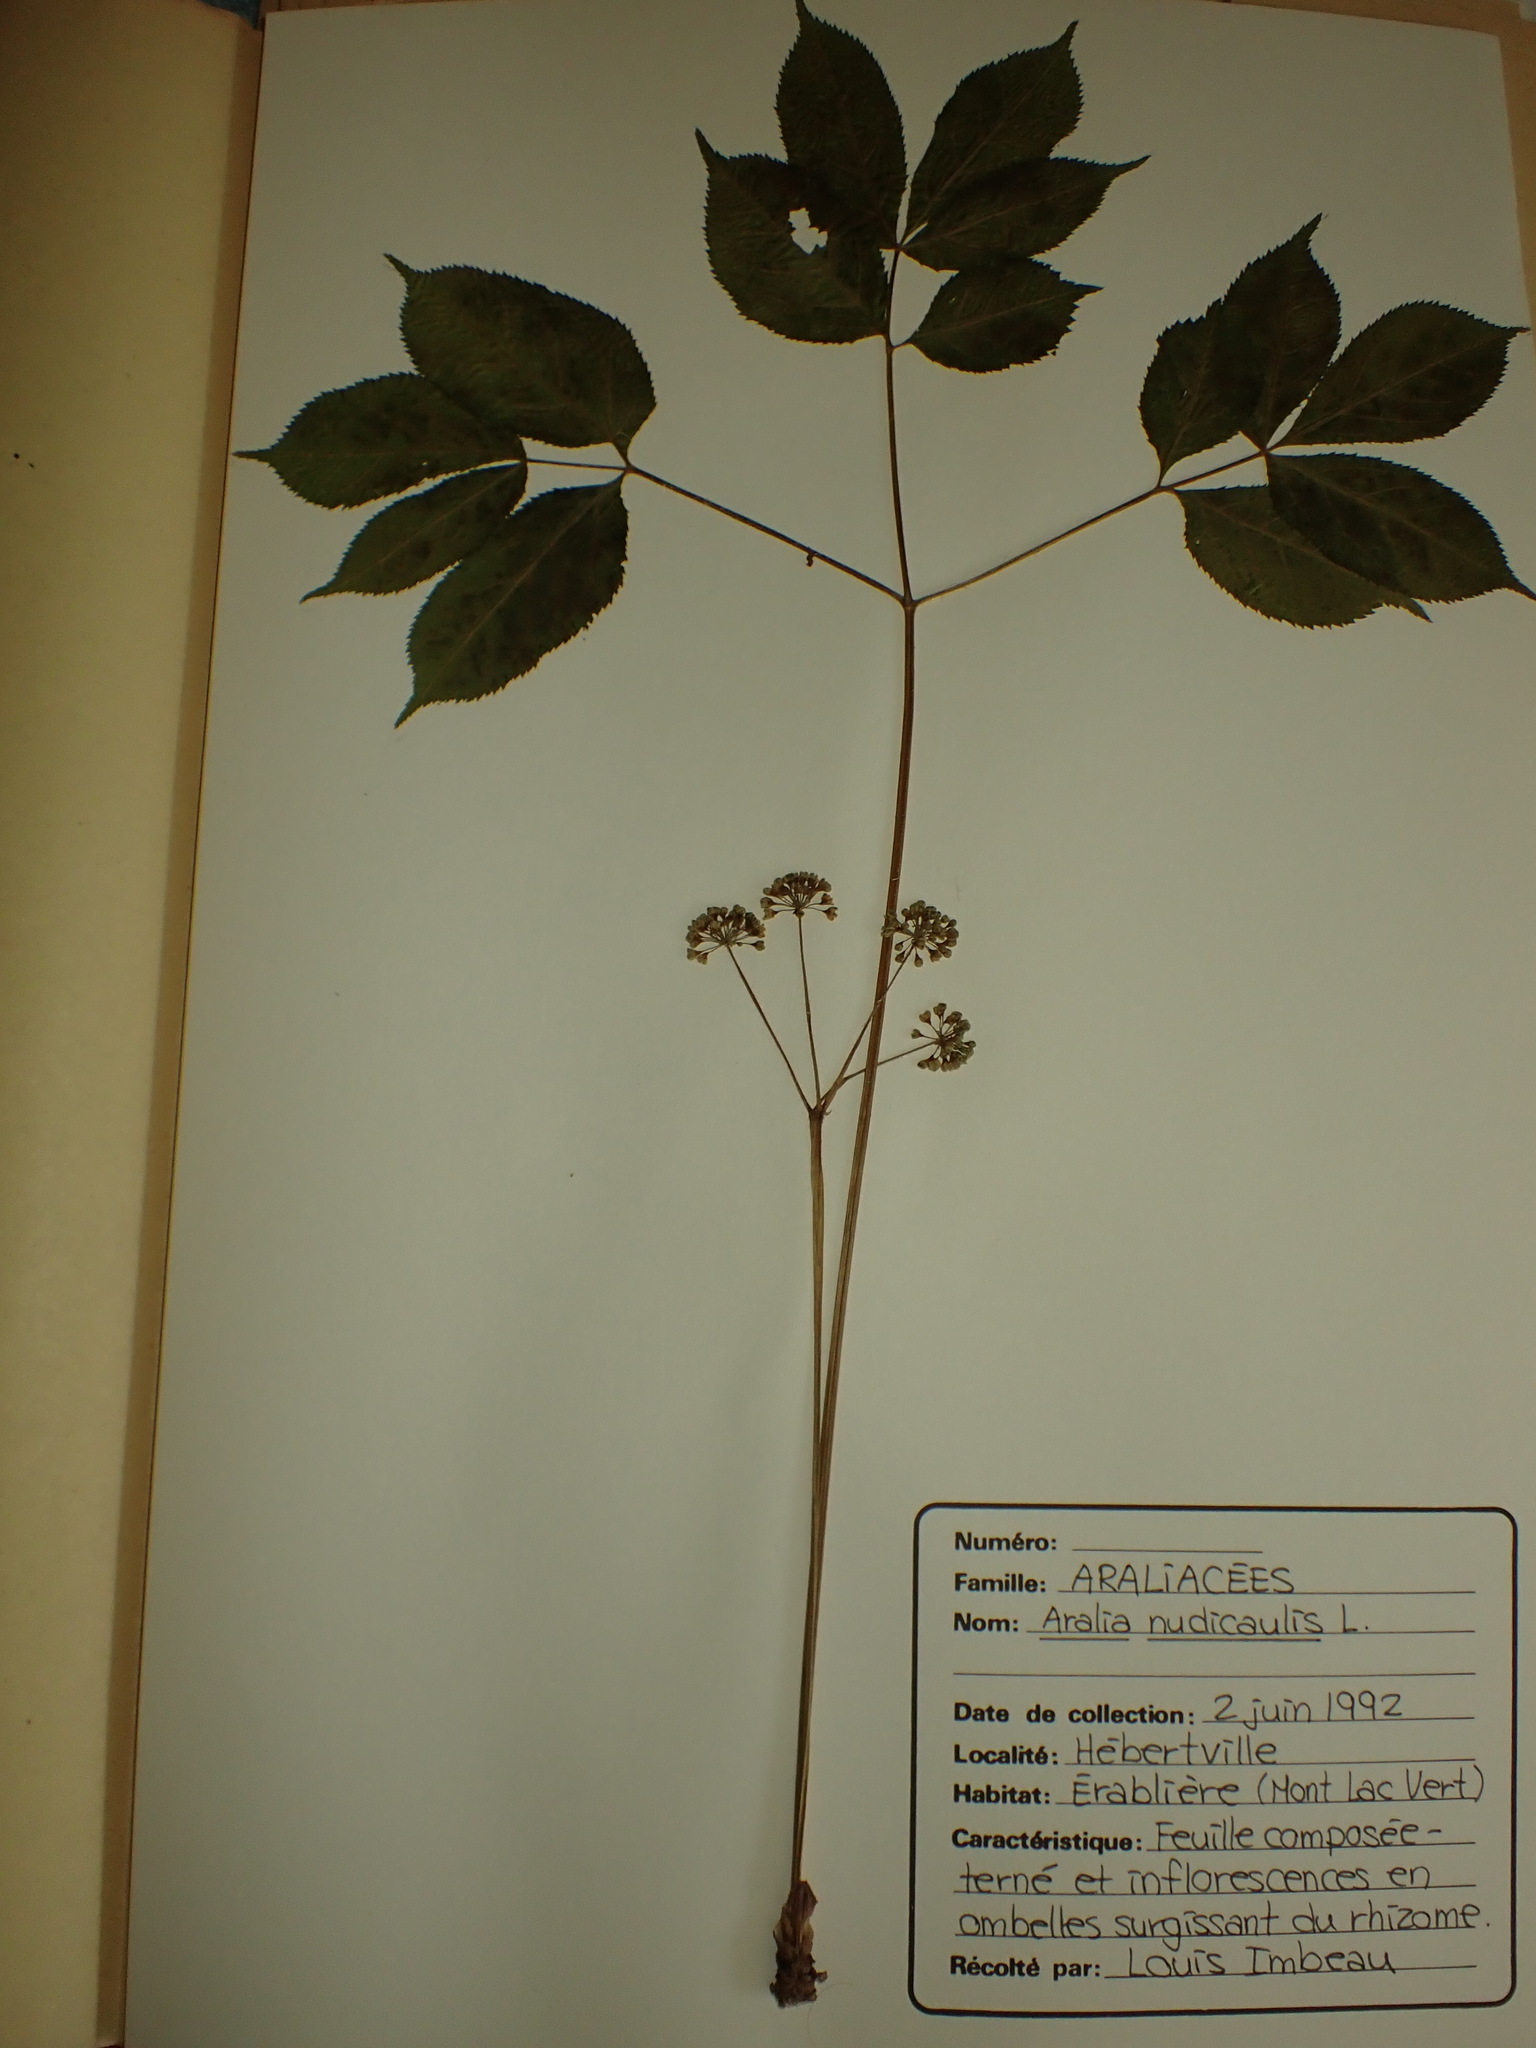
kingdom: Plantae
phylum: Tracheophyta
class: Magnoliopsida
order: Apiales
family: Araliaceae
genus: Aralia
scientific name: Aralia nudicaulis
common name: Wild sarsaparilla
